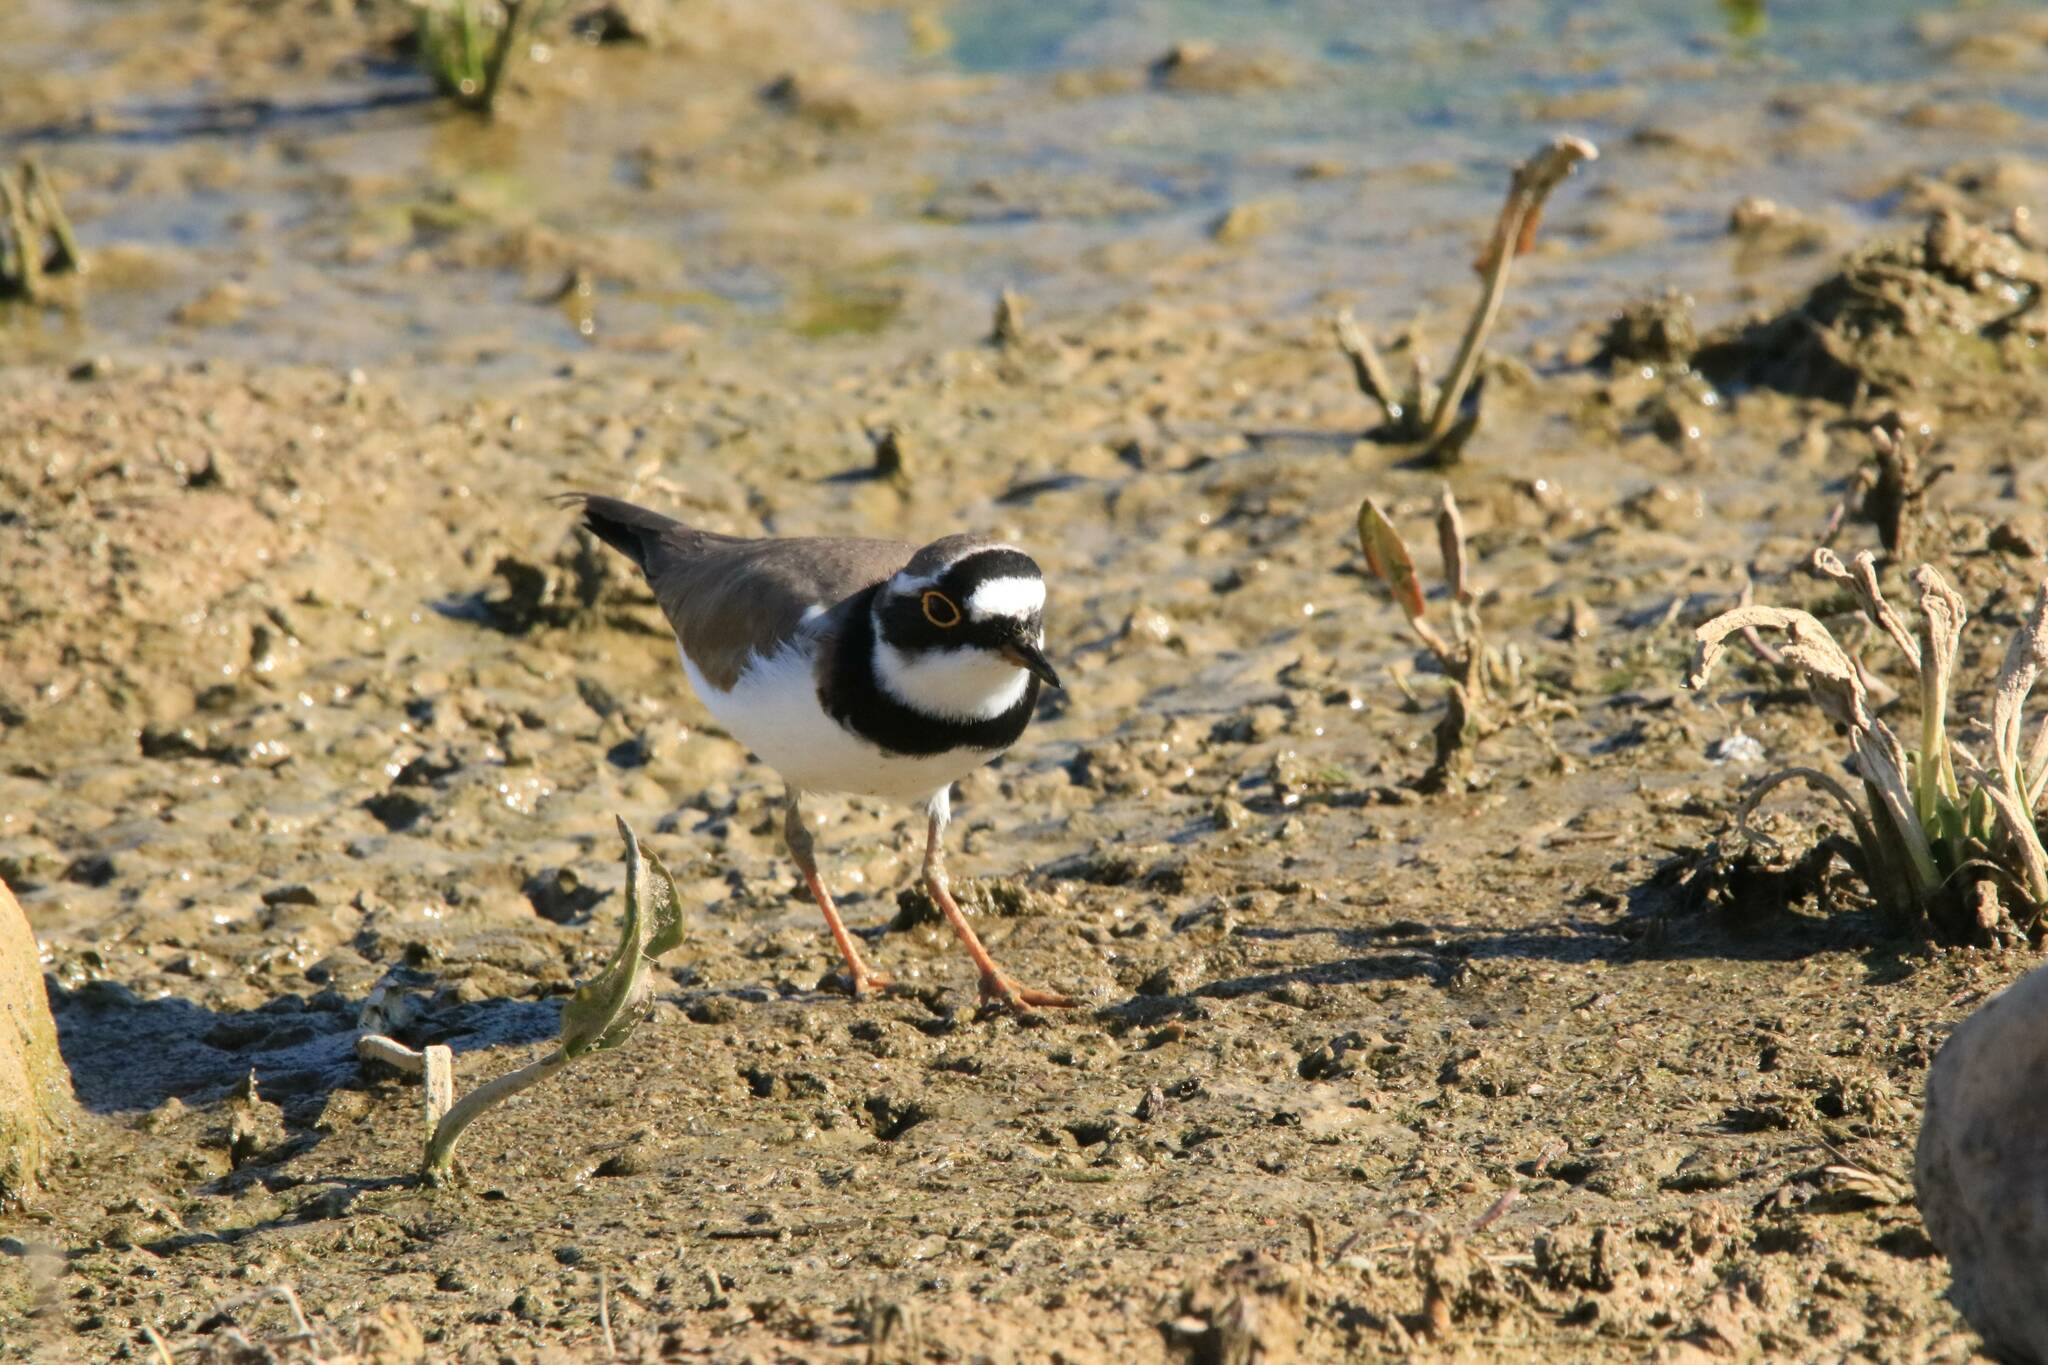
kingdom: Animalia
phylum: Chordata
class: Aves
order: Charadriiformes
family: Charadriidae
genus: Charadrius
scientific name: Charadrius dubius
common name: Little ringed plover
